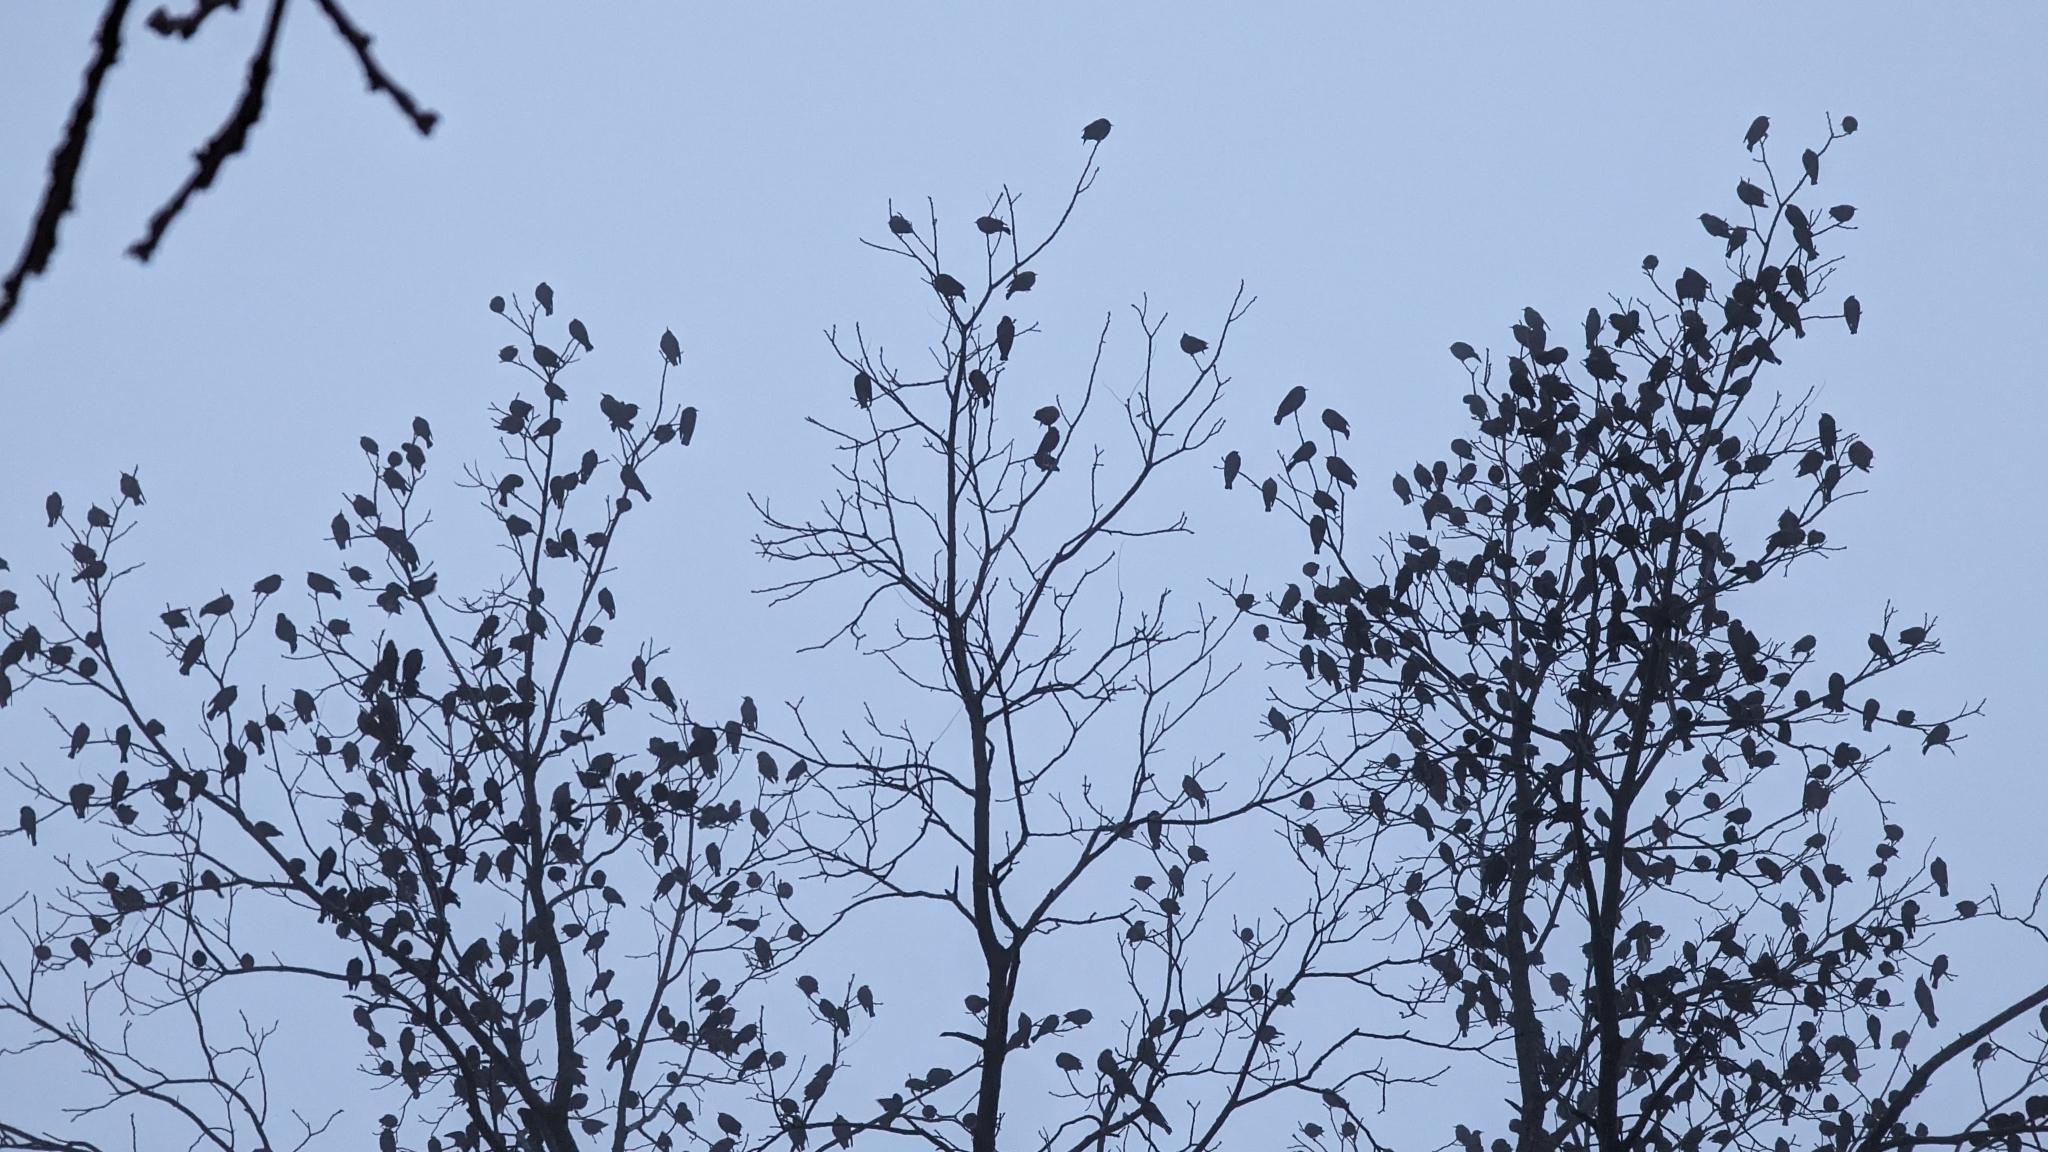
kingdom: Animalia
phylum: Chordata
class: Aves
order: Passeriformes
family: Sturnidae
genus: Sturnus
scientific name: Sturnus vulgaris
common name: Common starling
